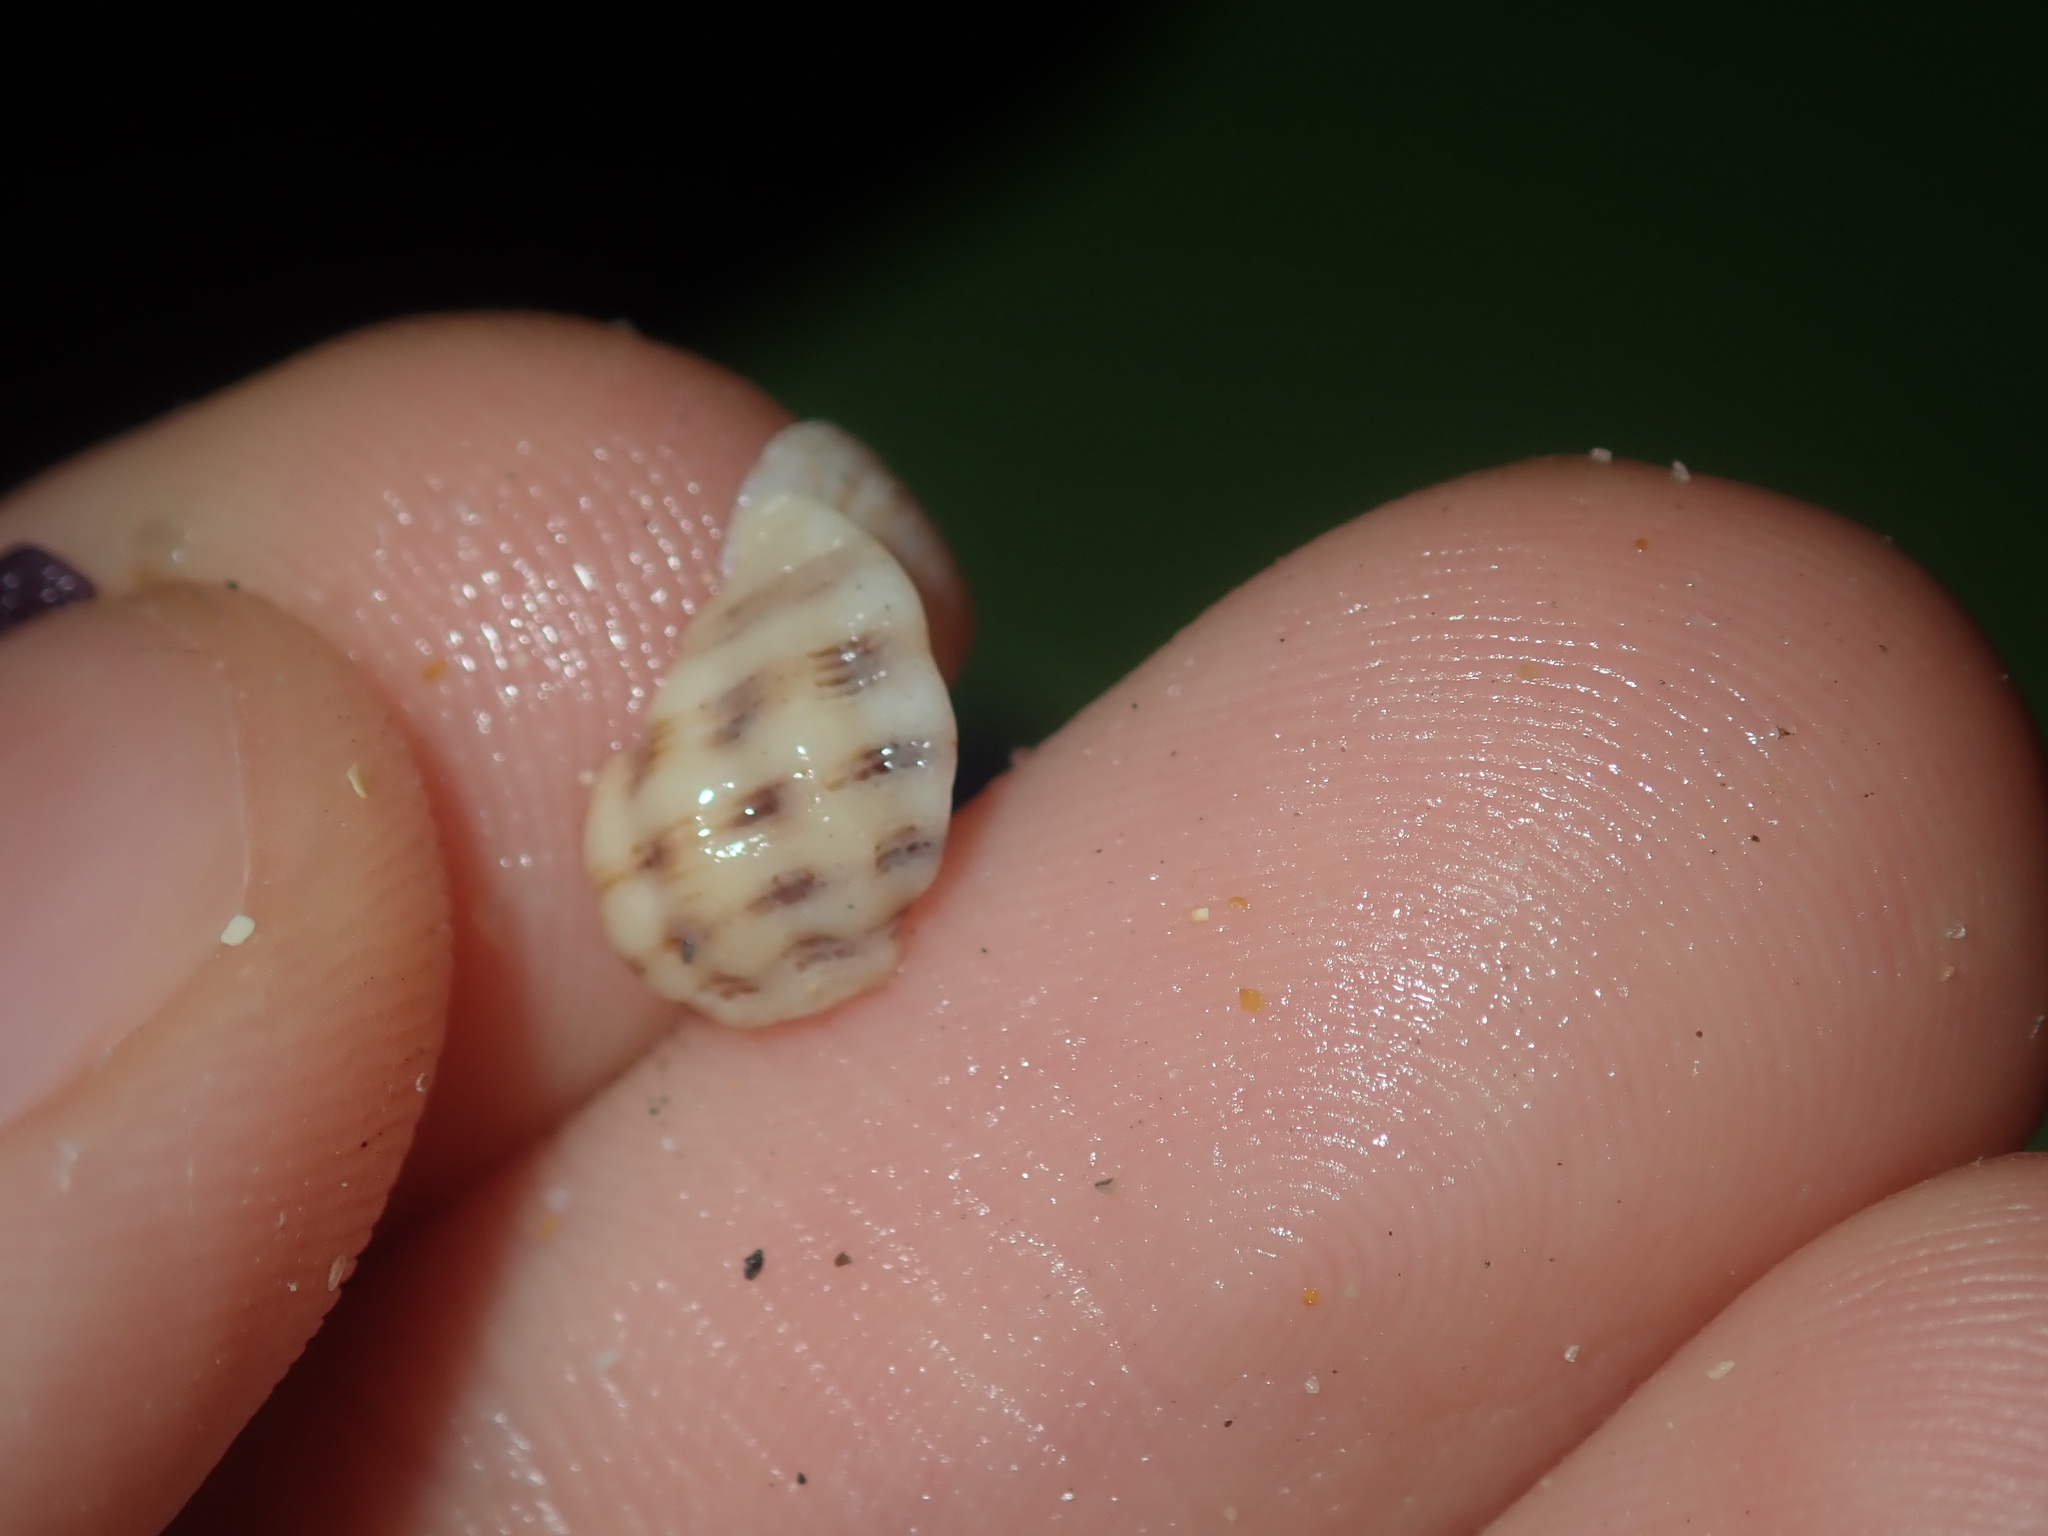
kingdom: Animalia
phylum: Mollusca
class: Gastropoda
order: Neogastropoda
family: Muricidae
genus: Agnewia
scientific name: Agnewia tritoniformis
